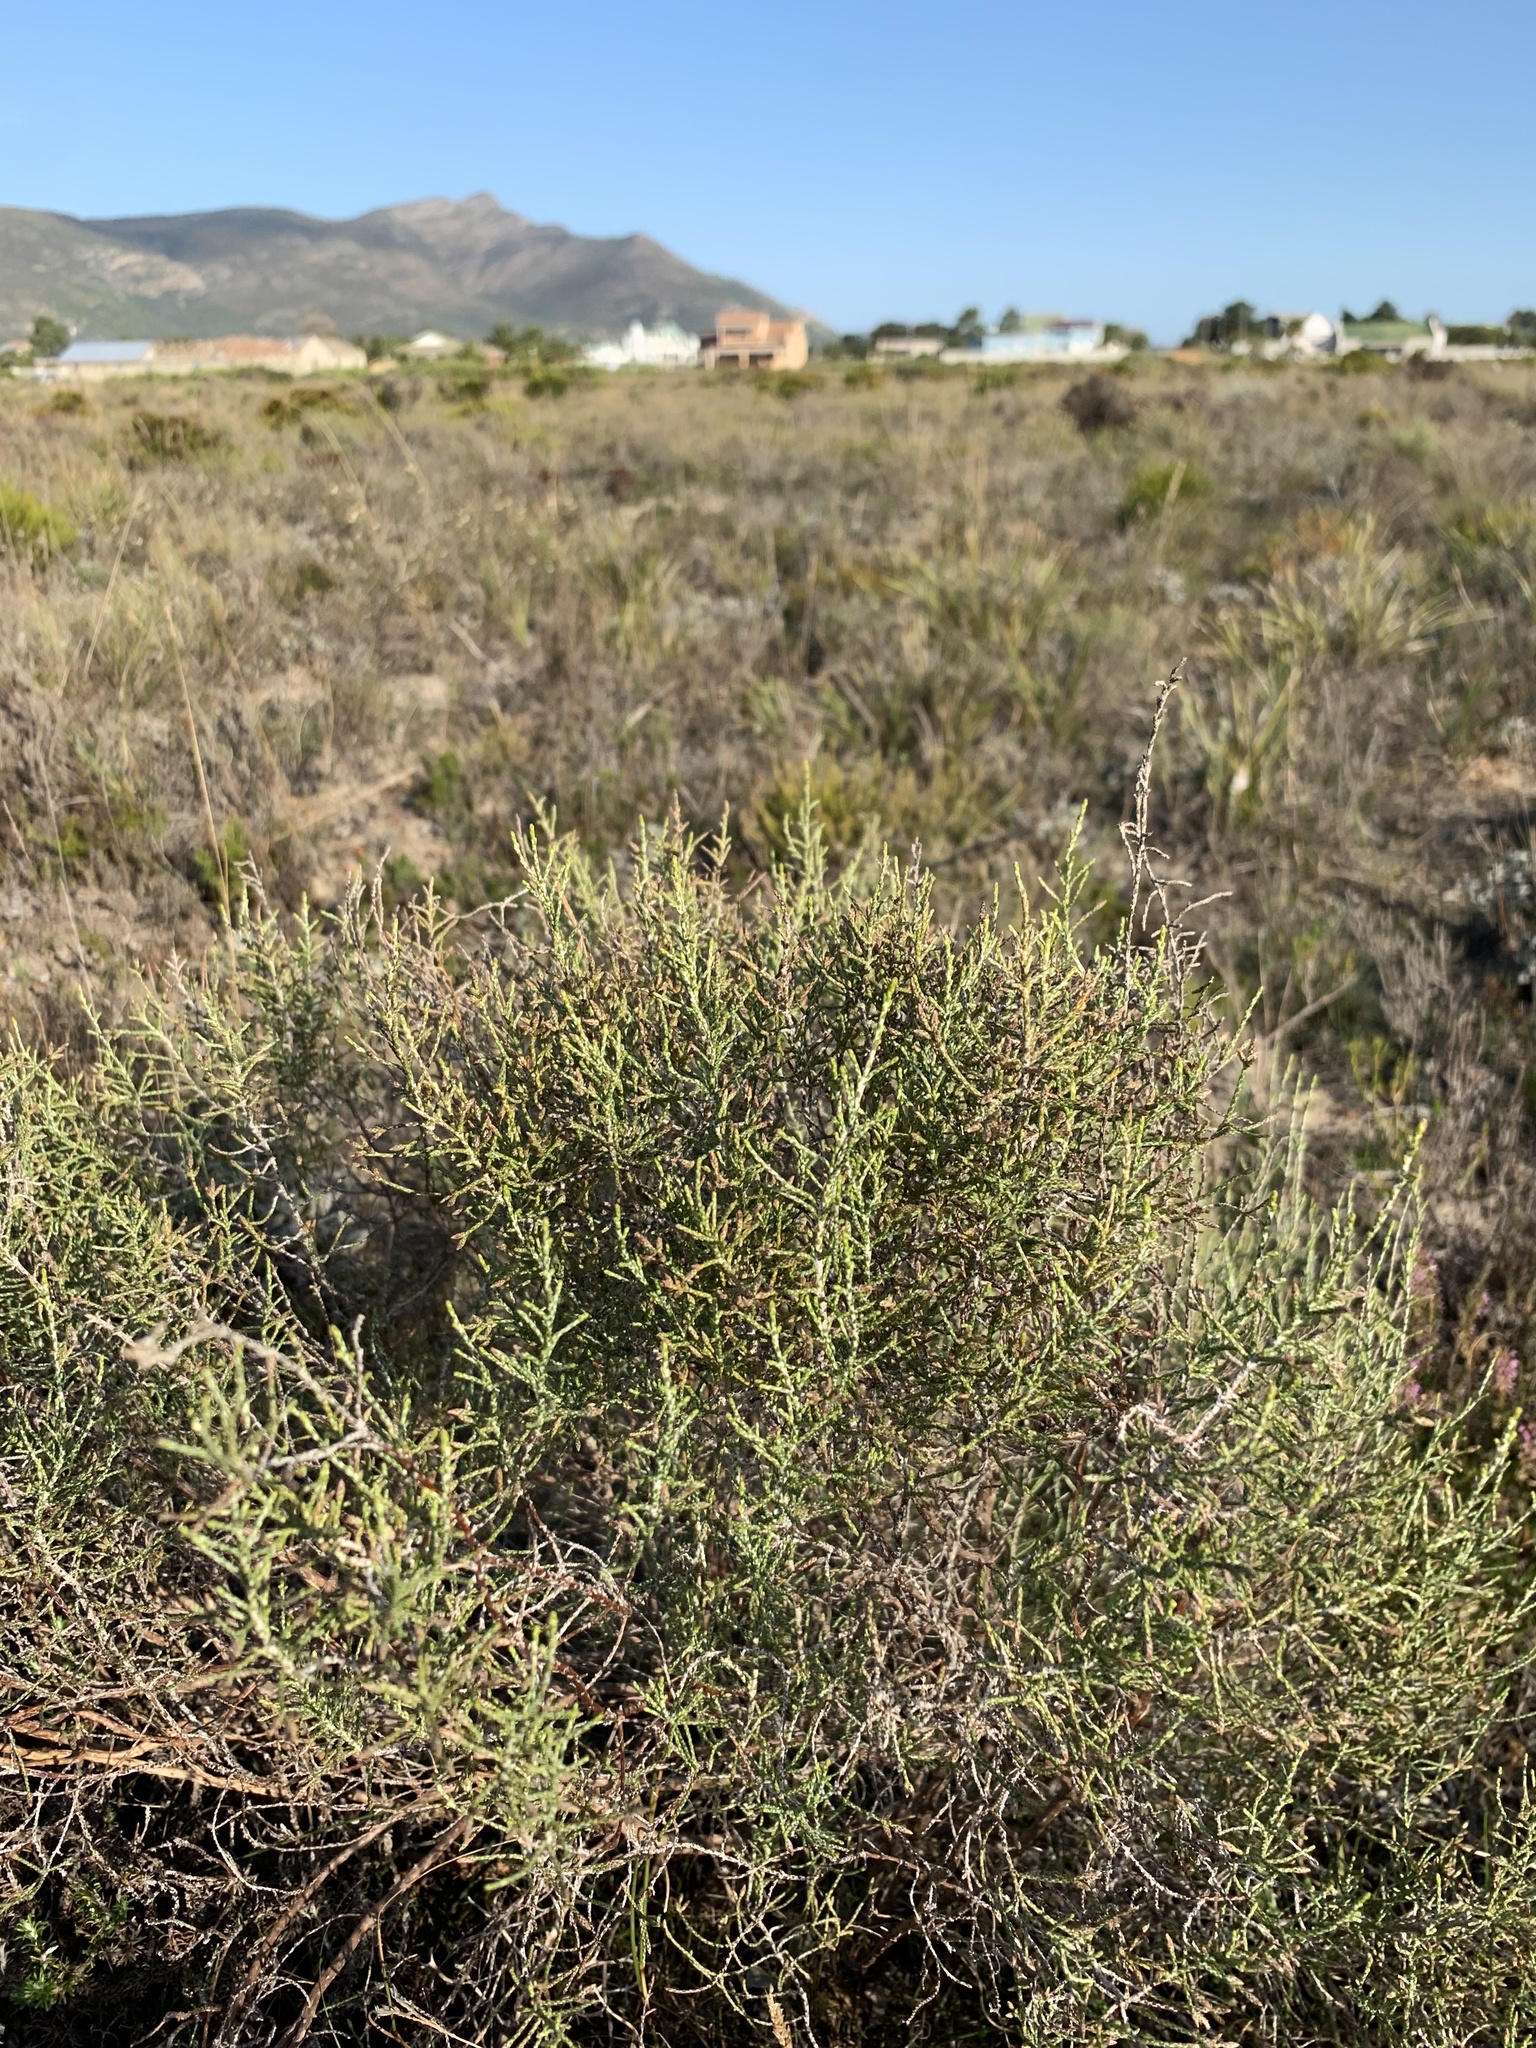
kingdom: Plantae
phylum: Tracheophyta
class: Magnoliopsida
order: Asterales
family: Asteraceae
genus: Dicerothamnus
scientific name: Dicerothamnus rhinocerotis
